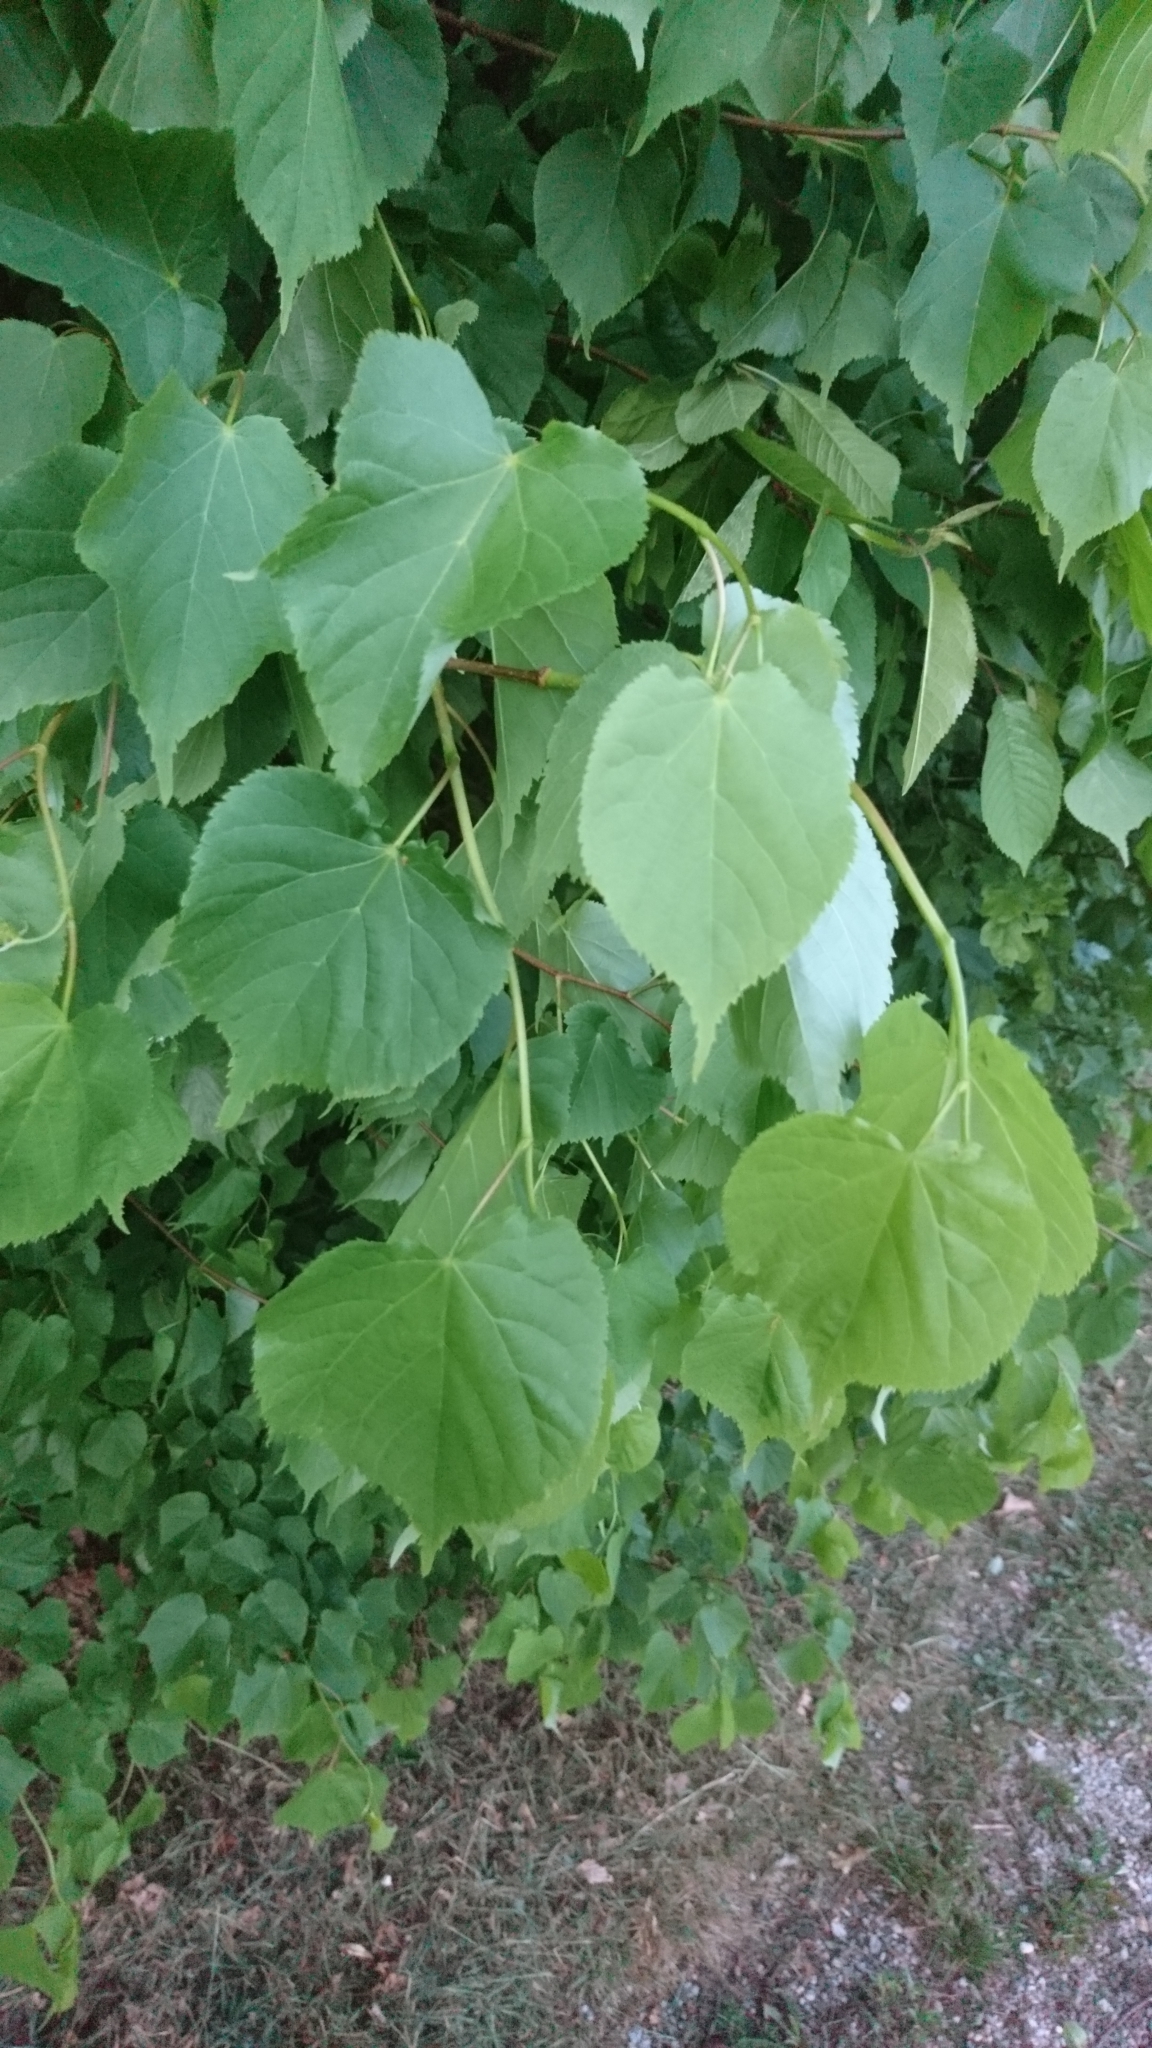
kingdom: Plantae
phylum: Tracheophyta
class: Magnoliopsida
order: Malvales
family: Malvaceae
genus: Tilia
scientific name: Tilia cordata
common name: Small-leaved lime
